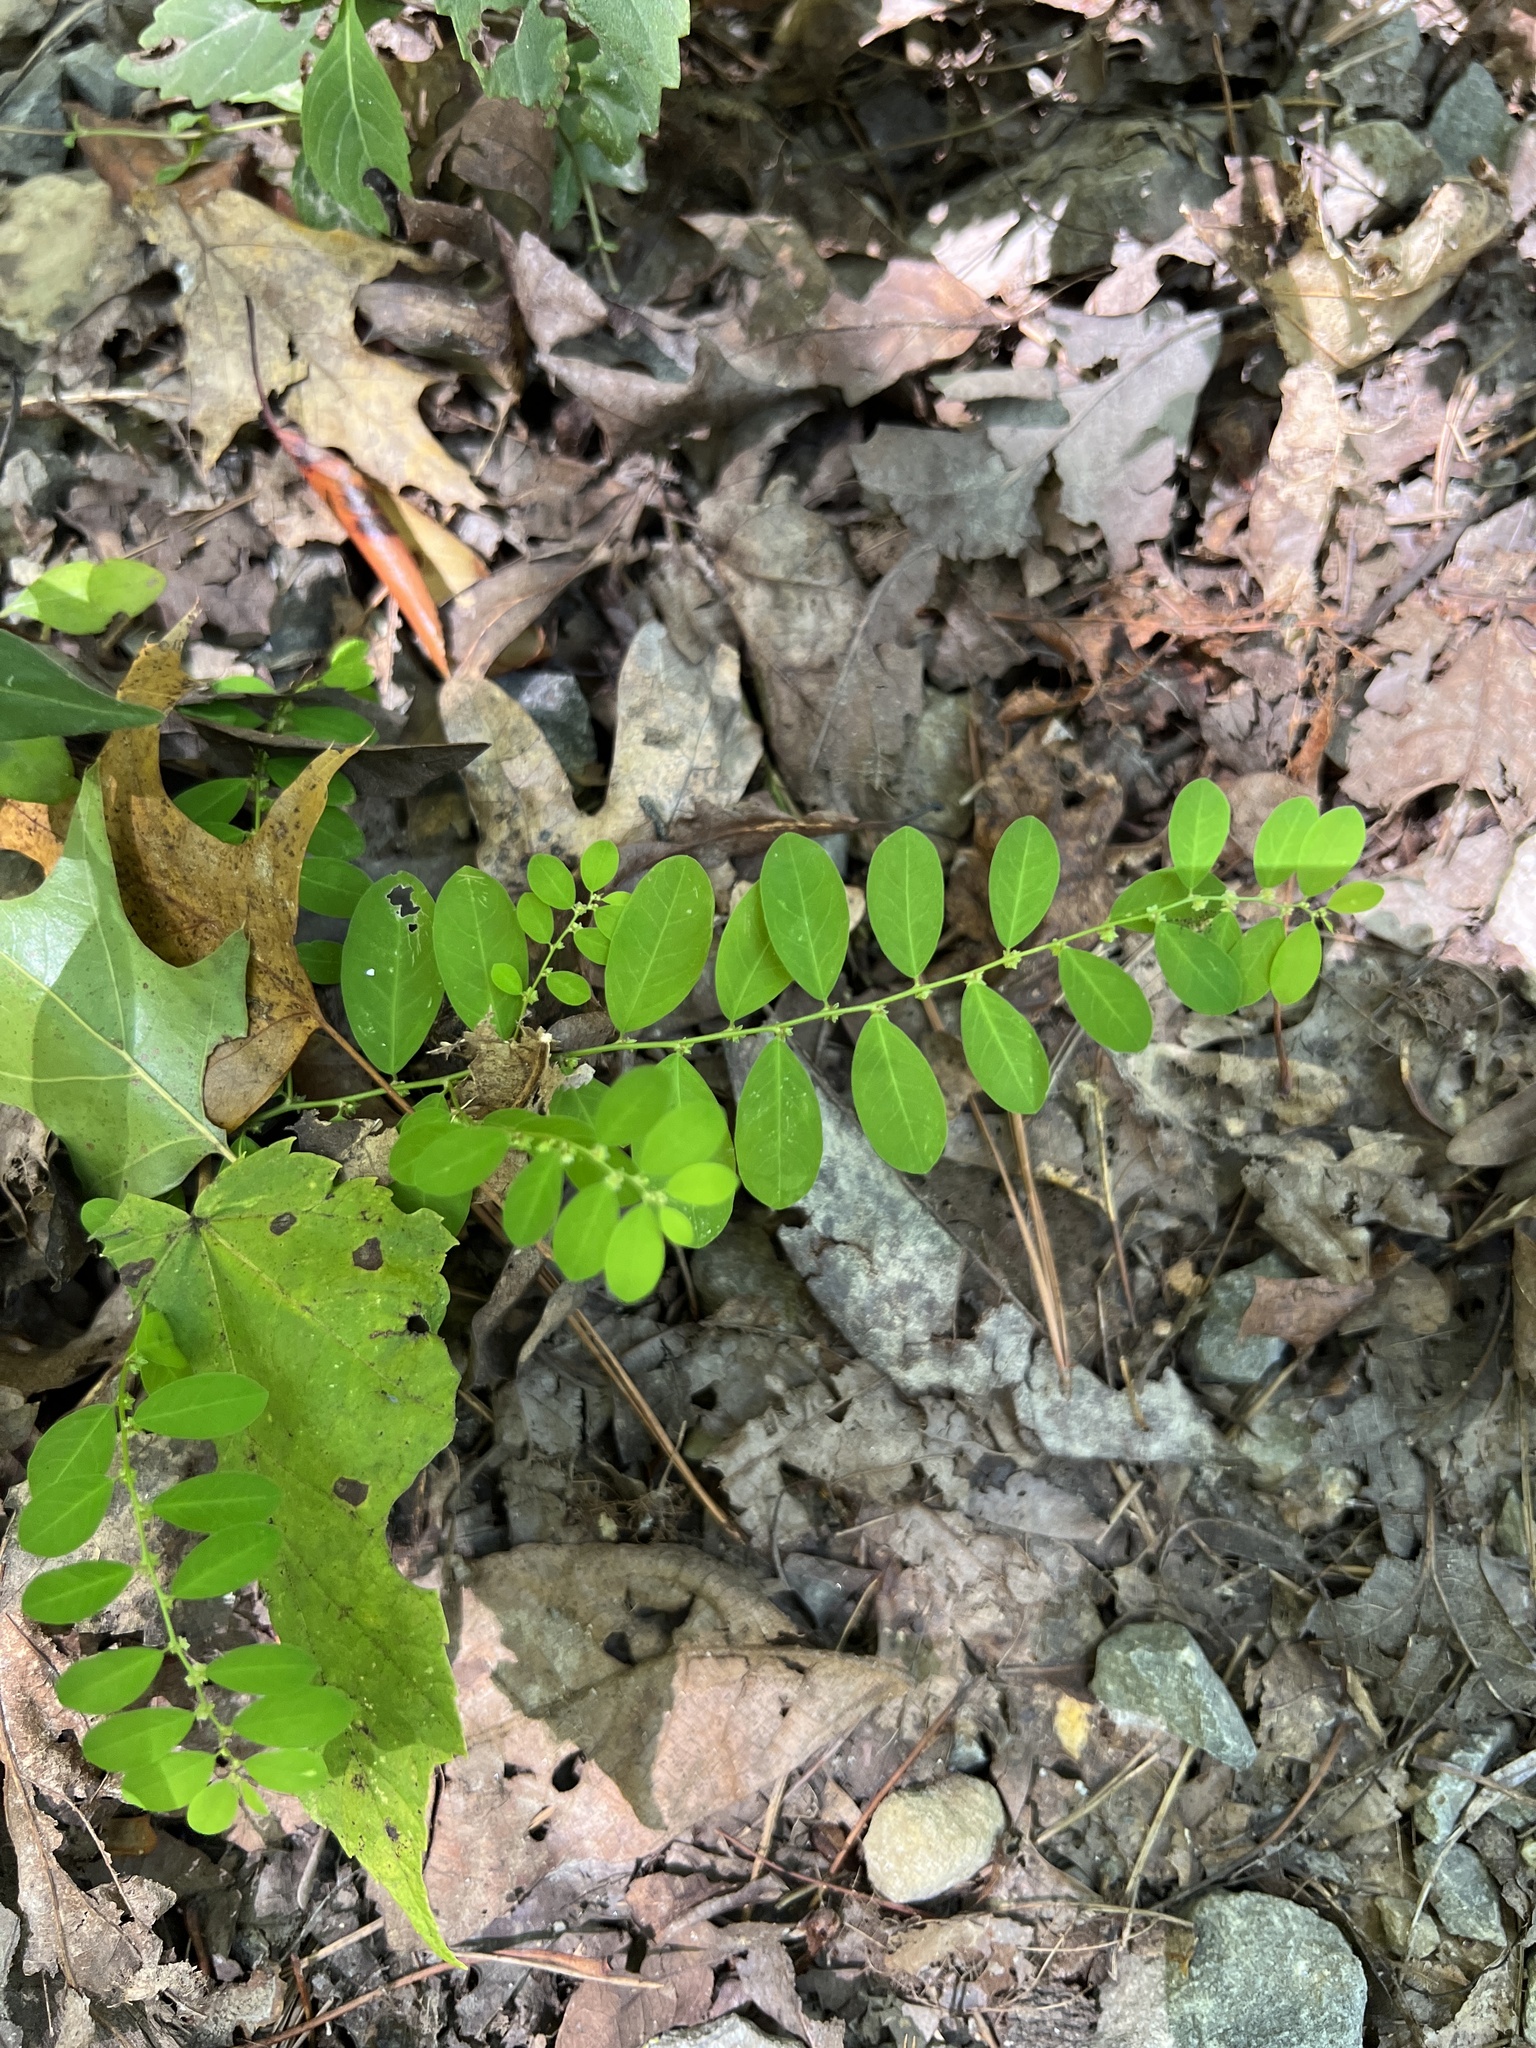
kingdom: Plantae
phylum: Tracheophyta
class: Magnoliopsida
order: Malpighiales
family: Phyllanthaceae
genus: Phyllanthus
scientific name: Phyllanthus caroliniensis
